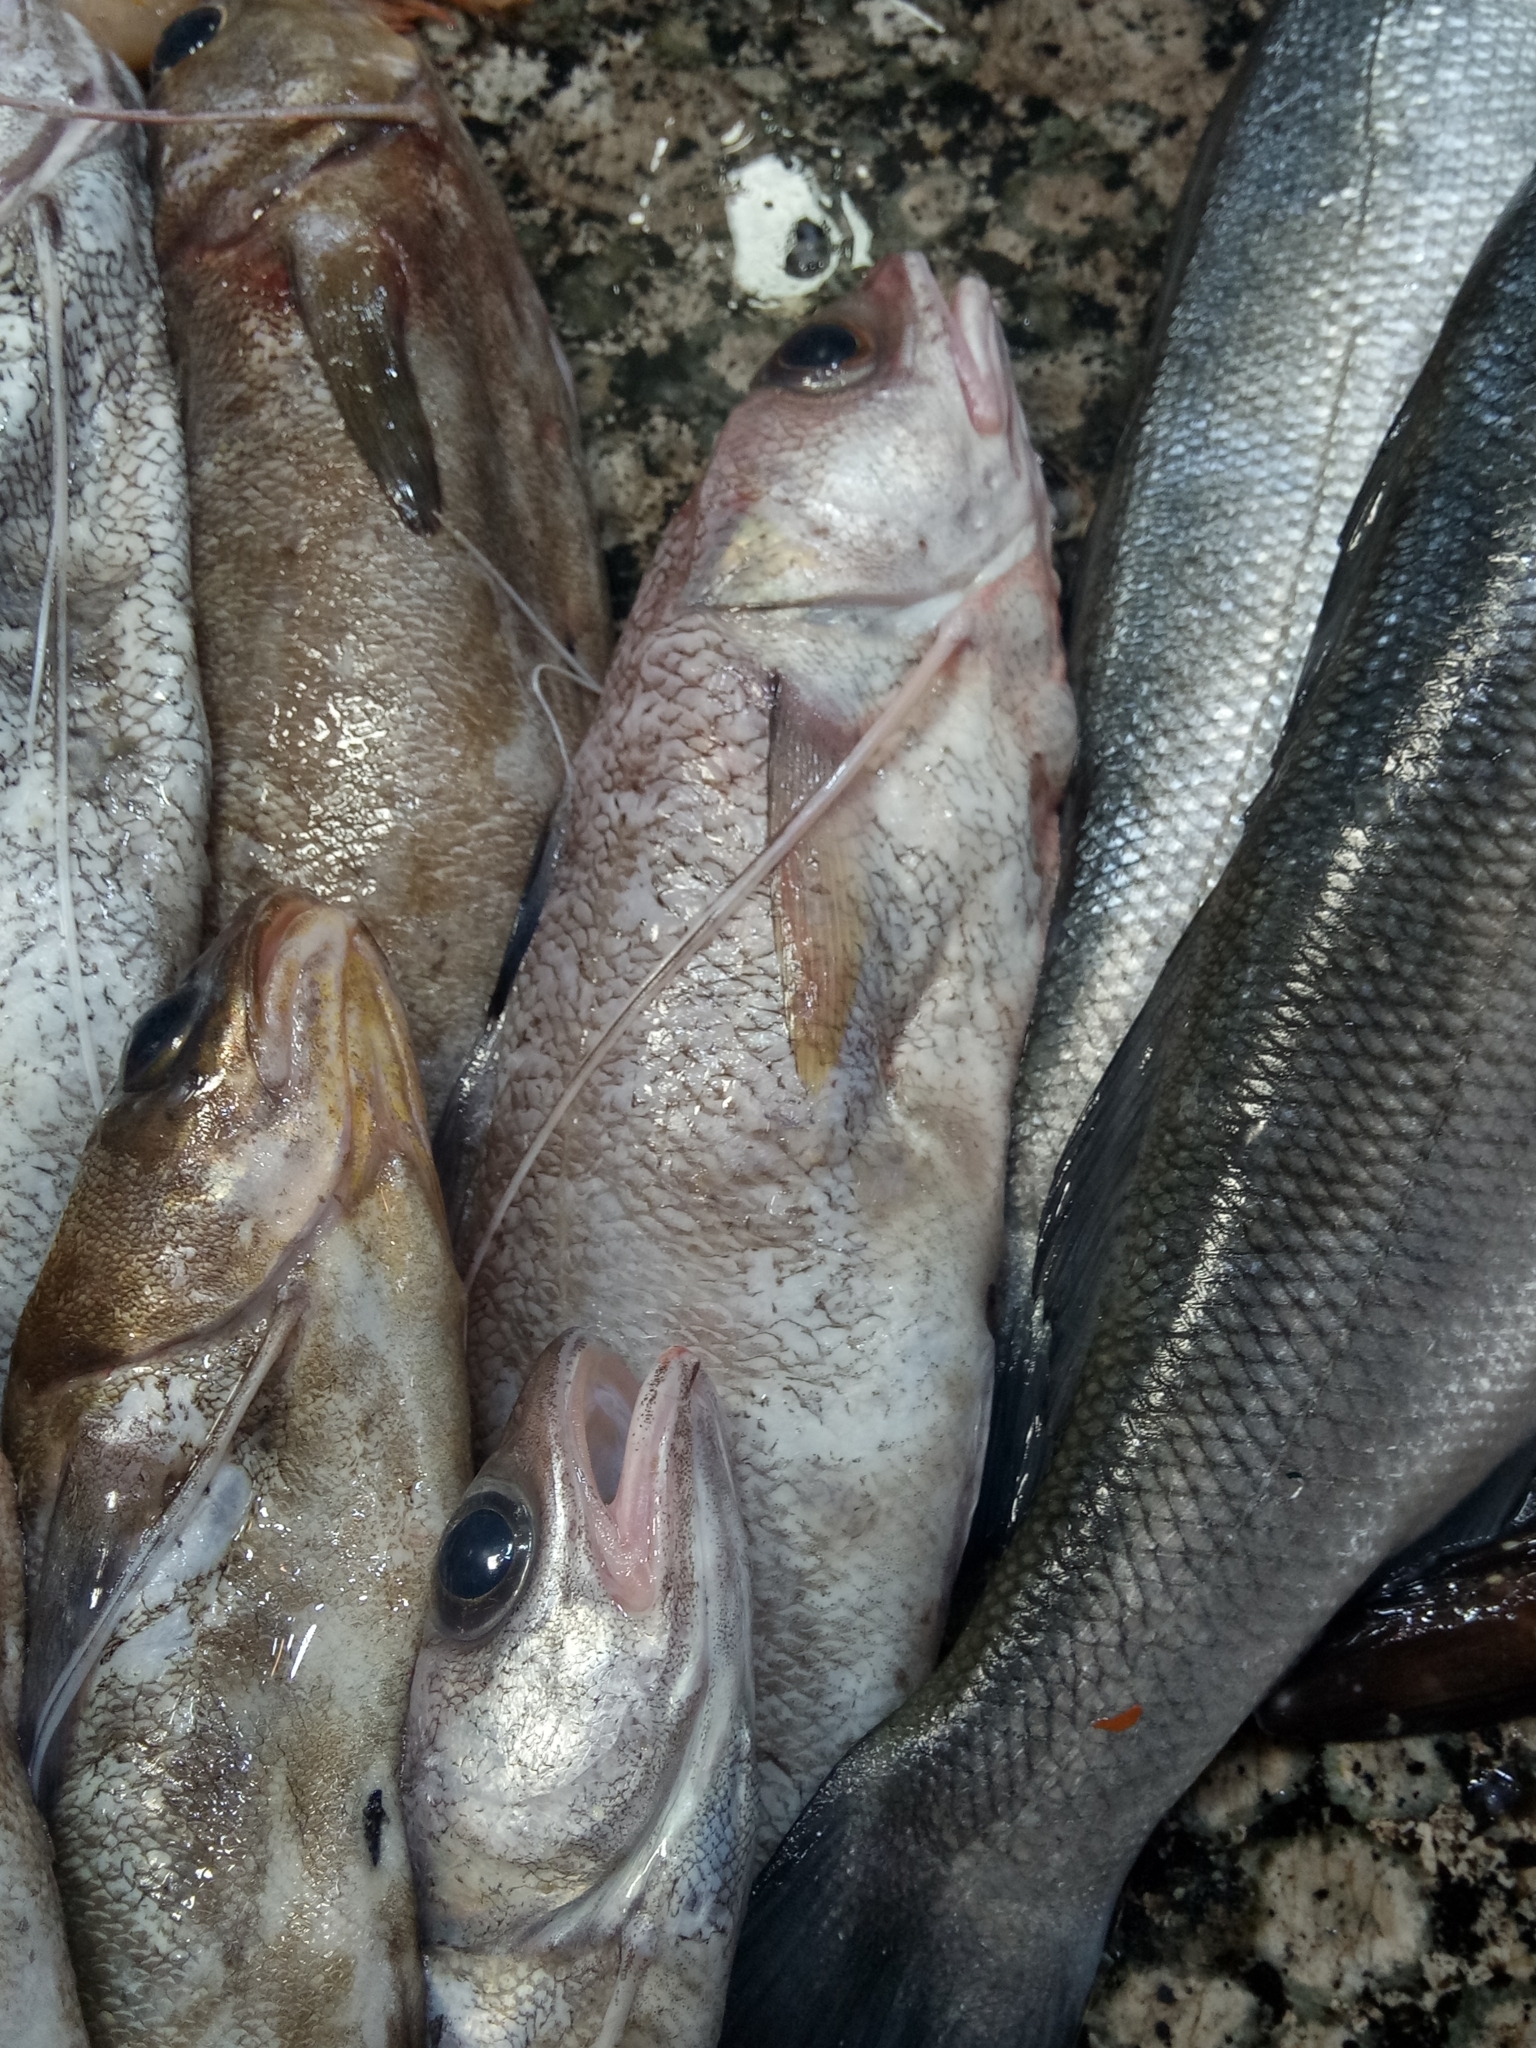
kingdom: Animalia
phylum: Chordata
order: Gadiformes
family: Phycidae
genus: Phycis
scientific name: Phycis phycis
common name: Forkbeard
